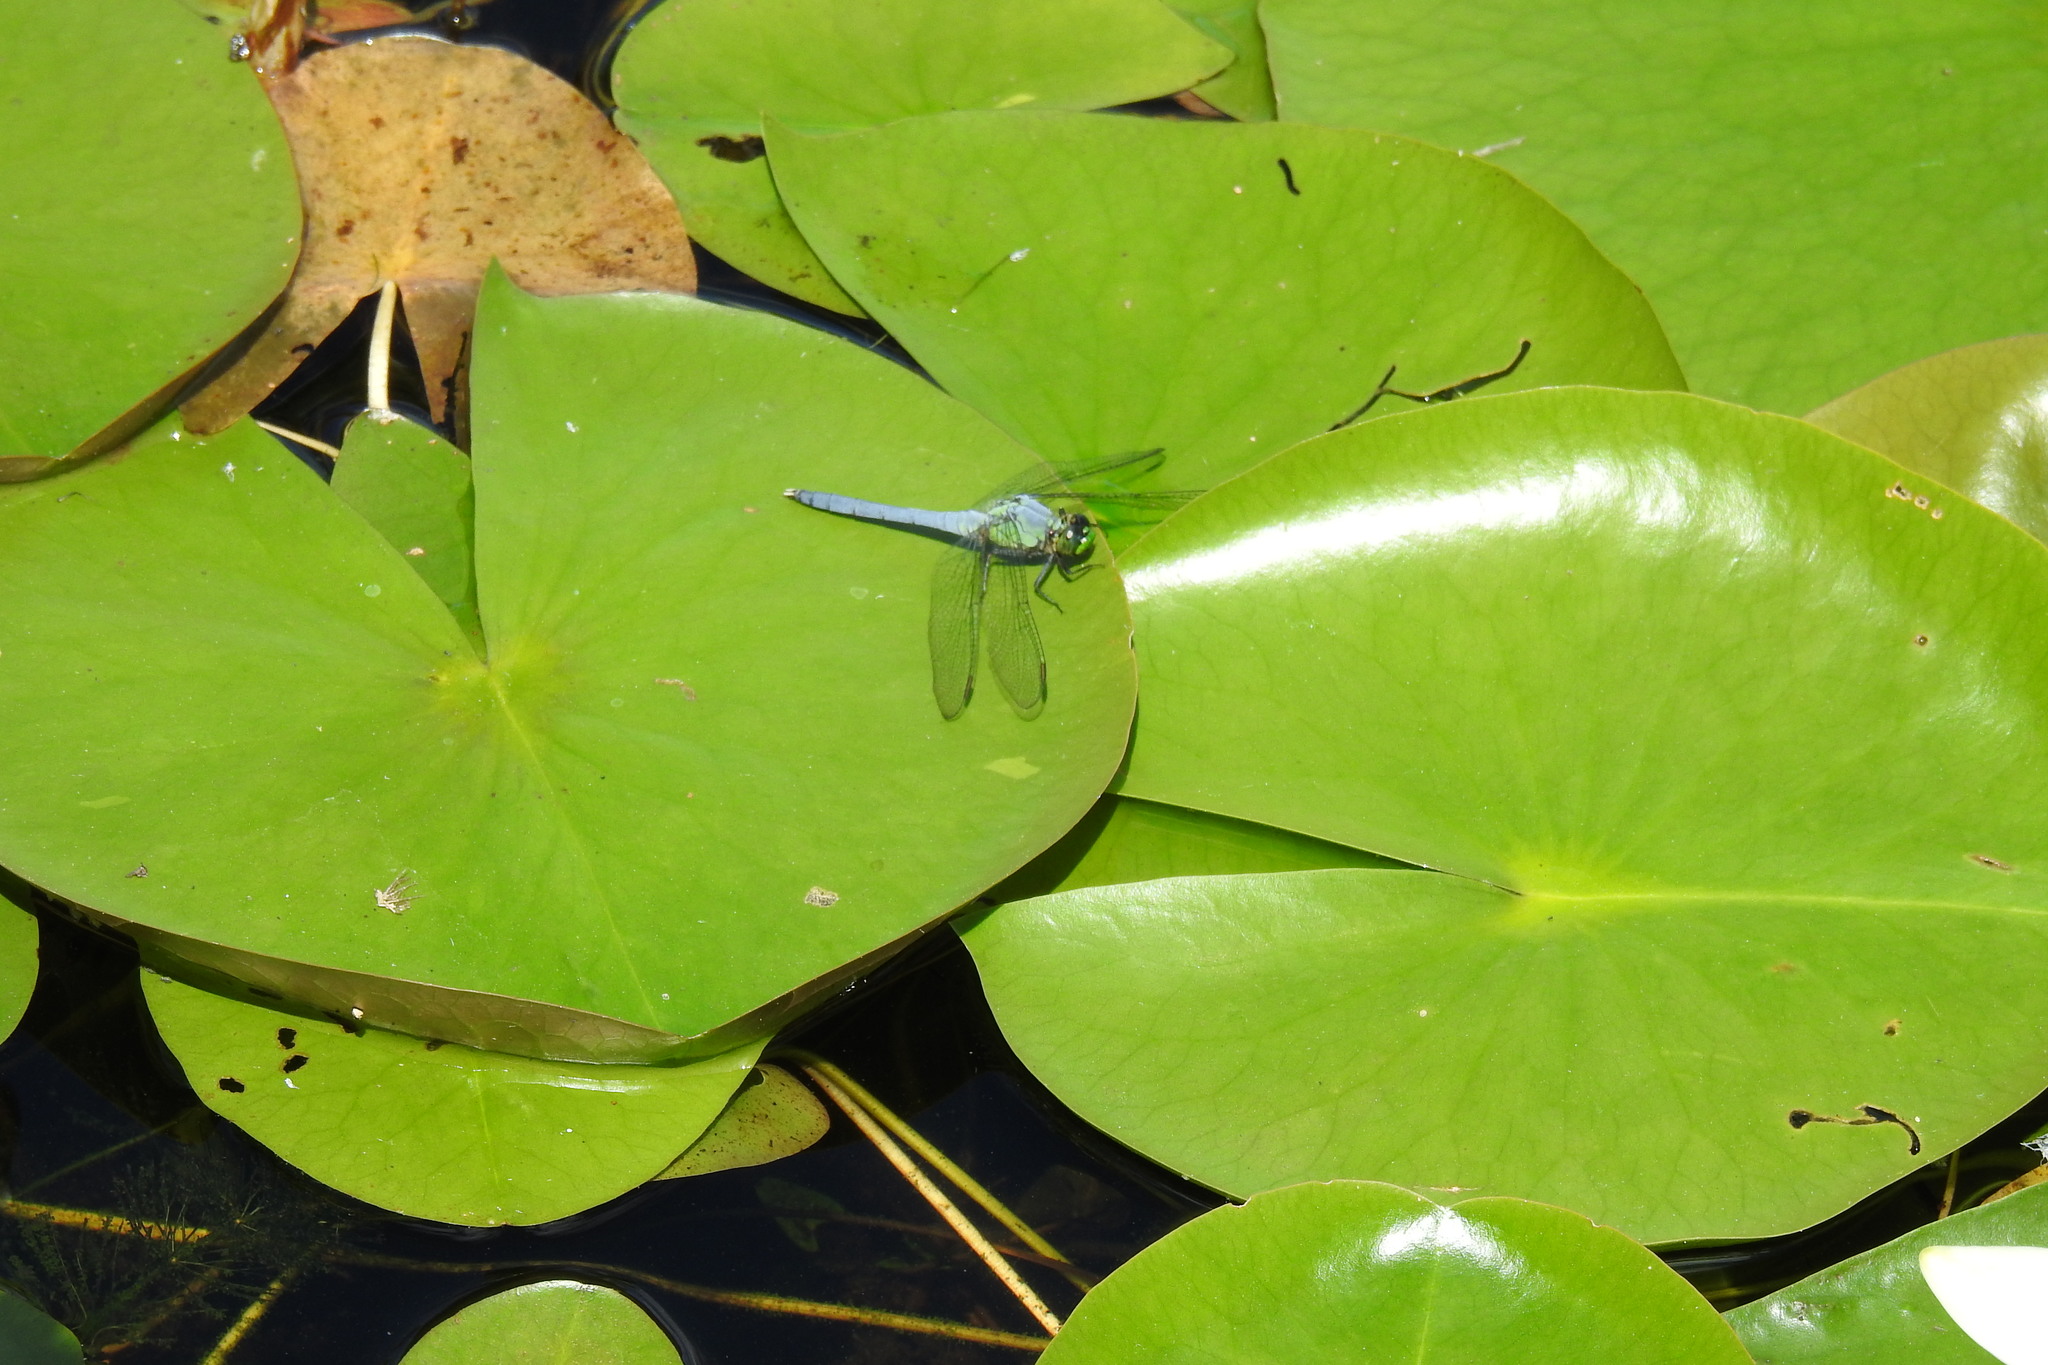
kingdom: Animalia
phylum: Arthropoda
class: Insecta
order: Odonata
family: Libellulidae
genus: Erythemis
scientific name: Erythemis simplicicollis
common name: Eastern pondhawk
